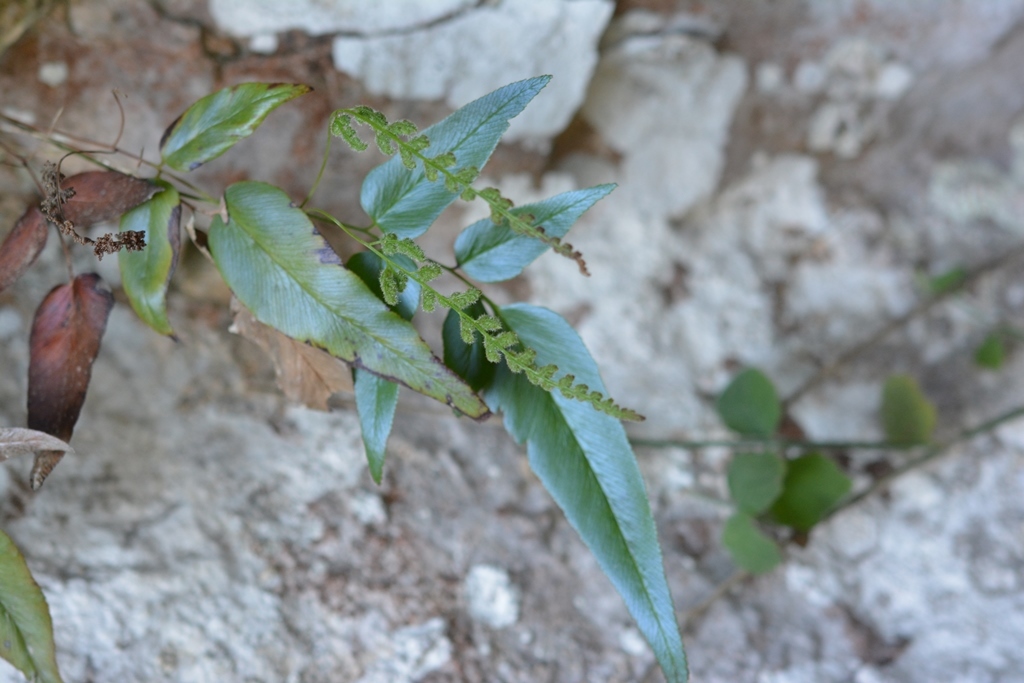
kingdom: Plantae
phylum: Tracheophyta
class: Polypodiopsida
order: Schizaeales
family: Anemiaceae
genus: Anemia
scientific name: Anemia speciosa
